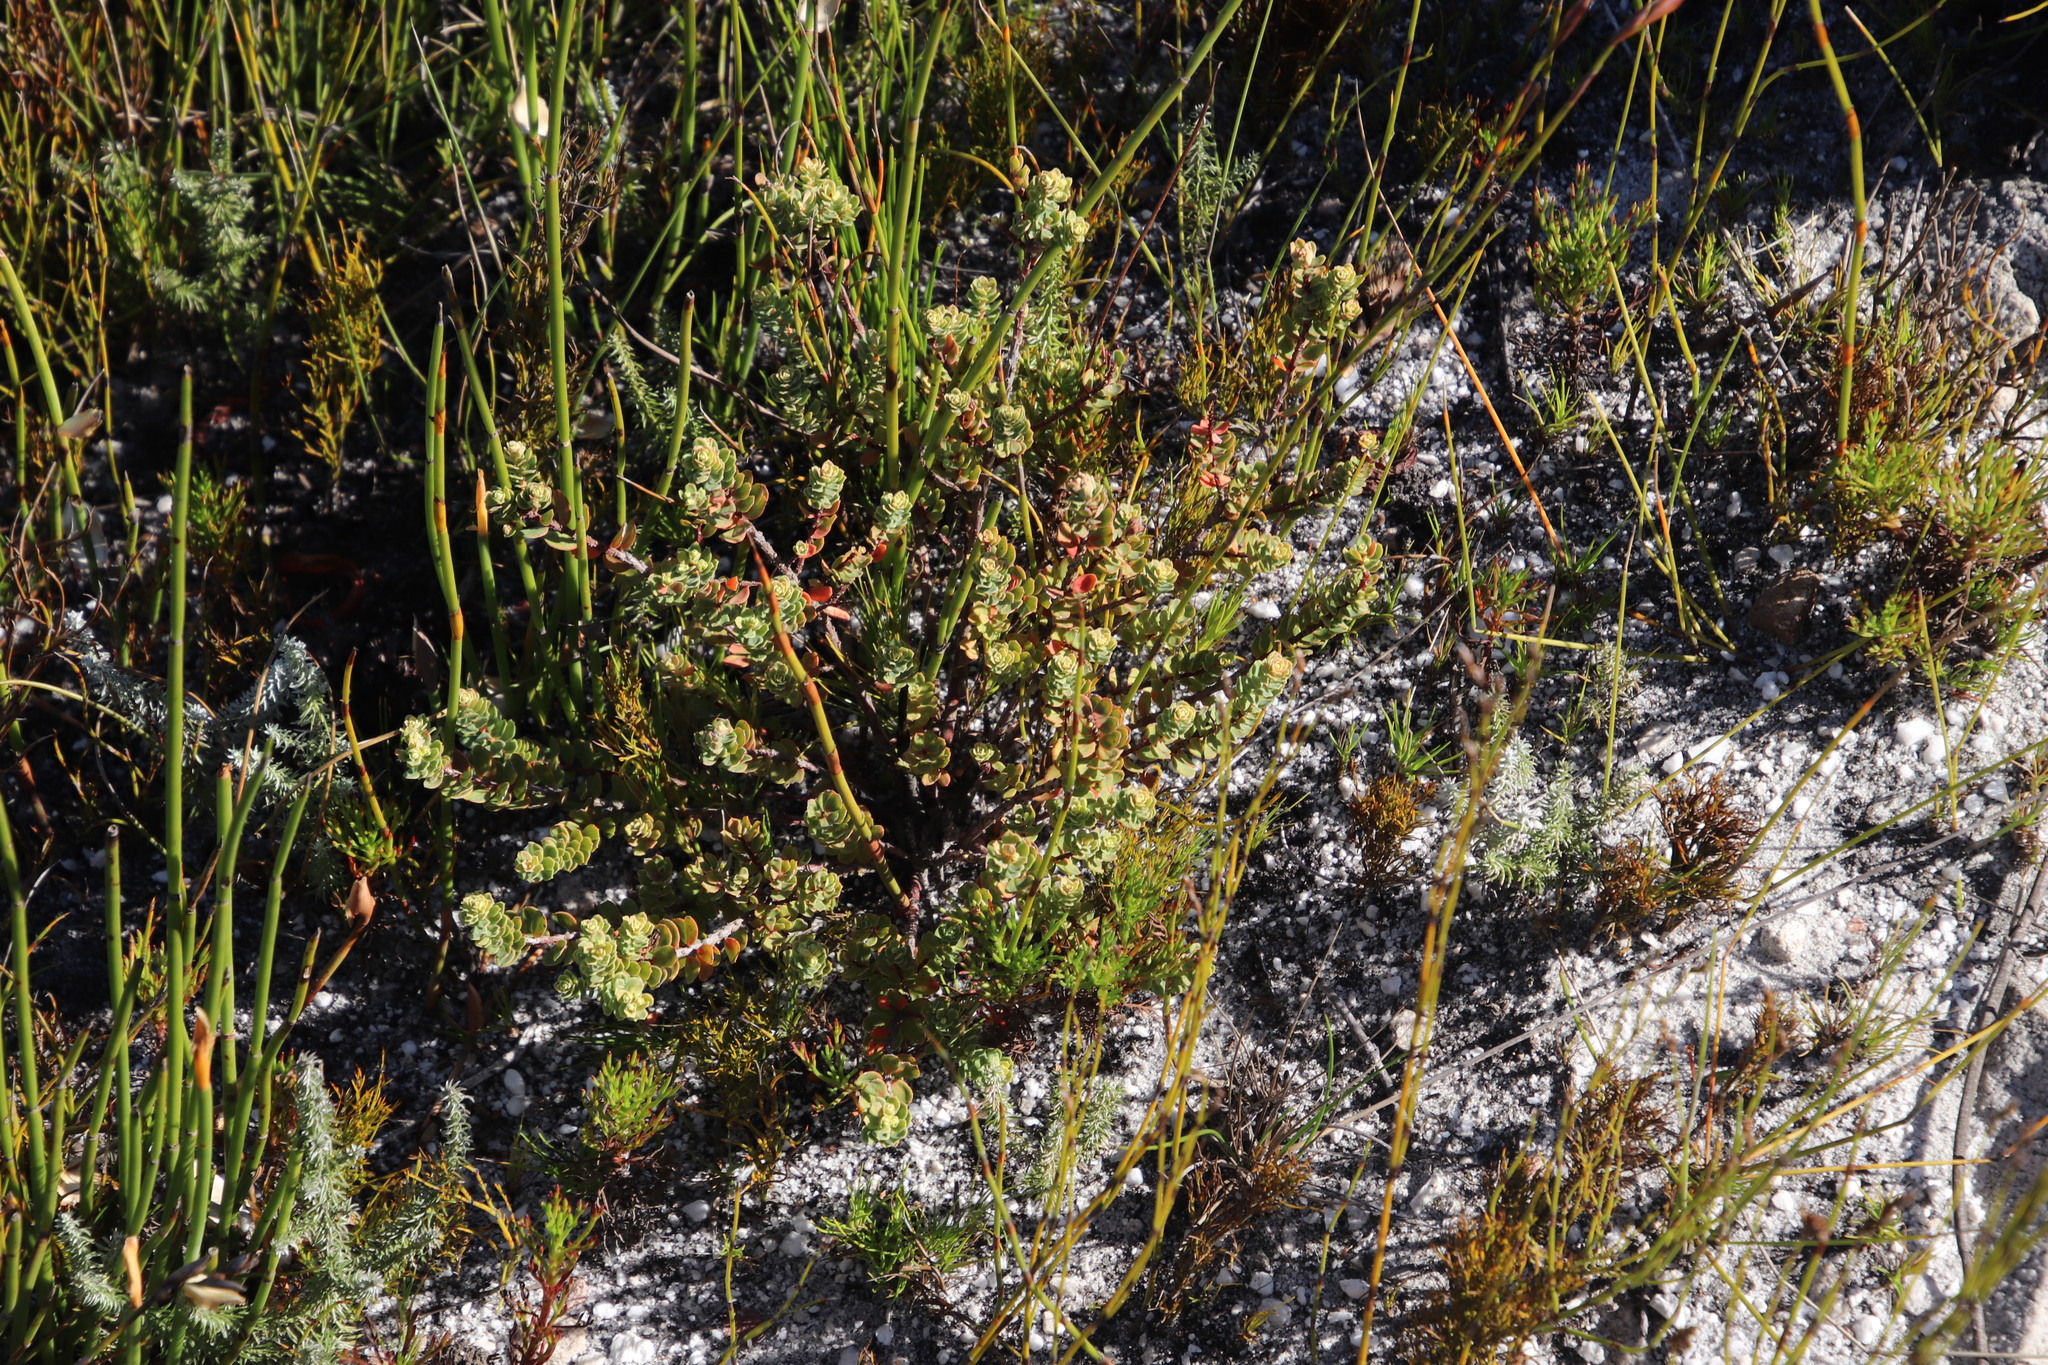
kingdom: Plantae
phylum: Tracheophyta
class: Magnoliopsida
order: Malpighiales
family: Peraceae
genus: Clutia
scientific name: Clutia alaternoides
